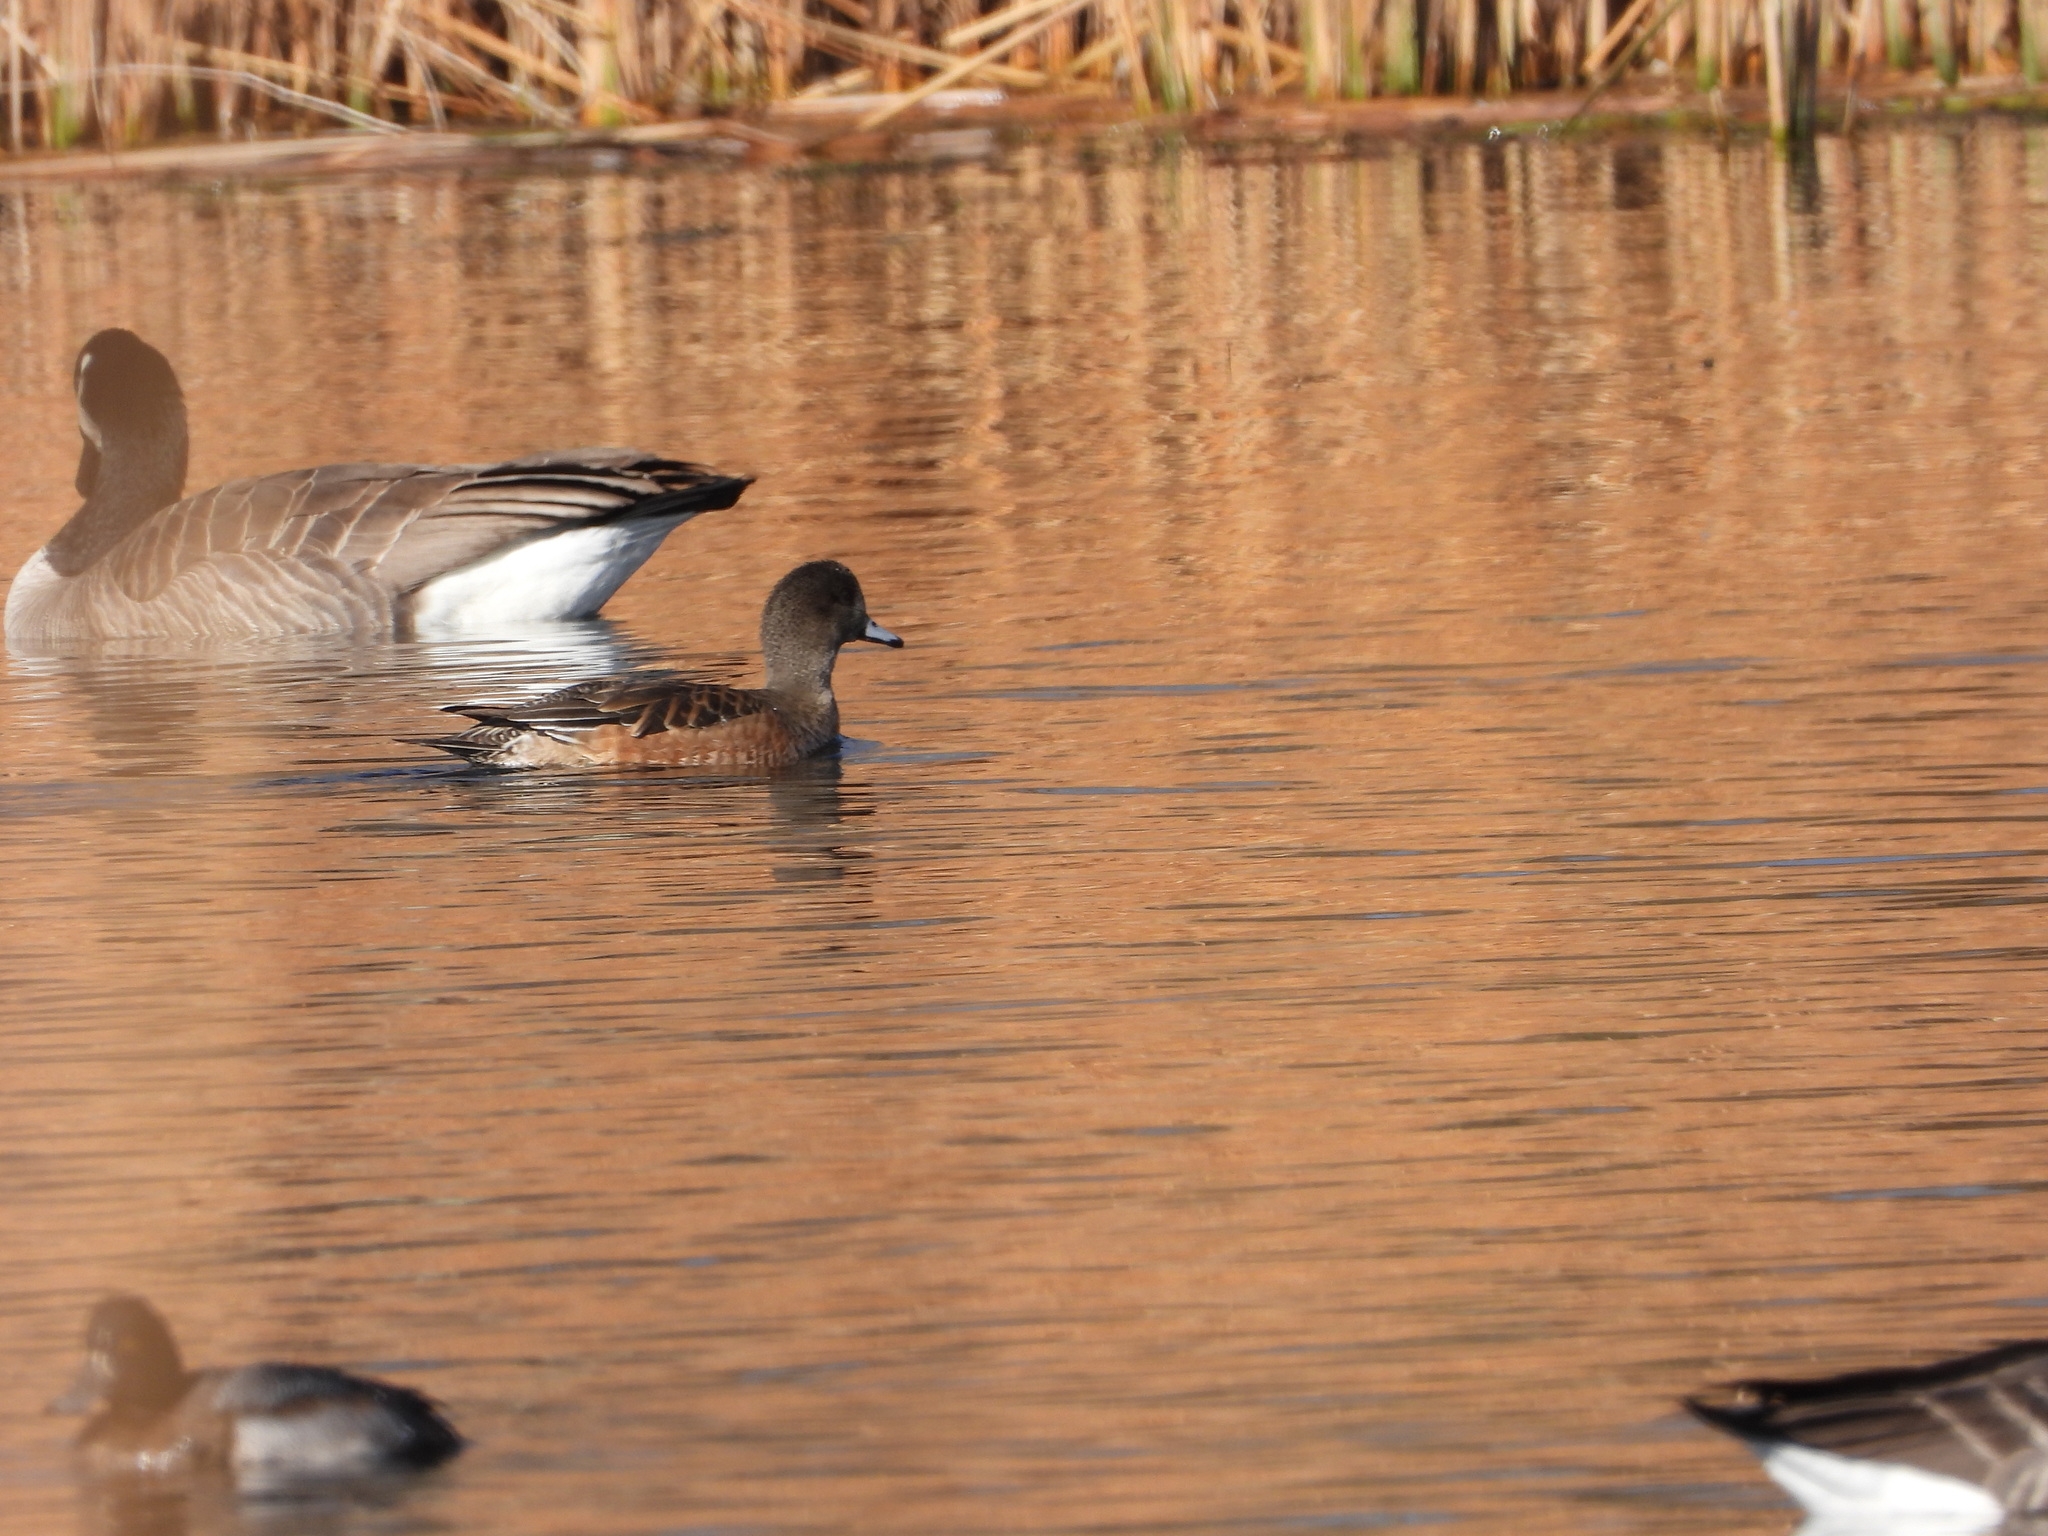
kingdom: Animalia
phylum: Chordata
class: Aves
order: Anseriformes
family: Anatidae
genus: Mareca
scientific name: Mareca americana
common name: American wigeon
